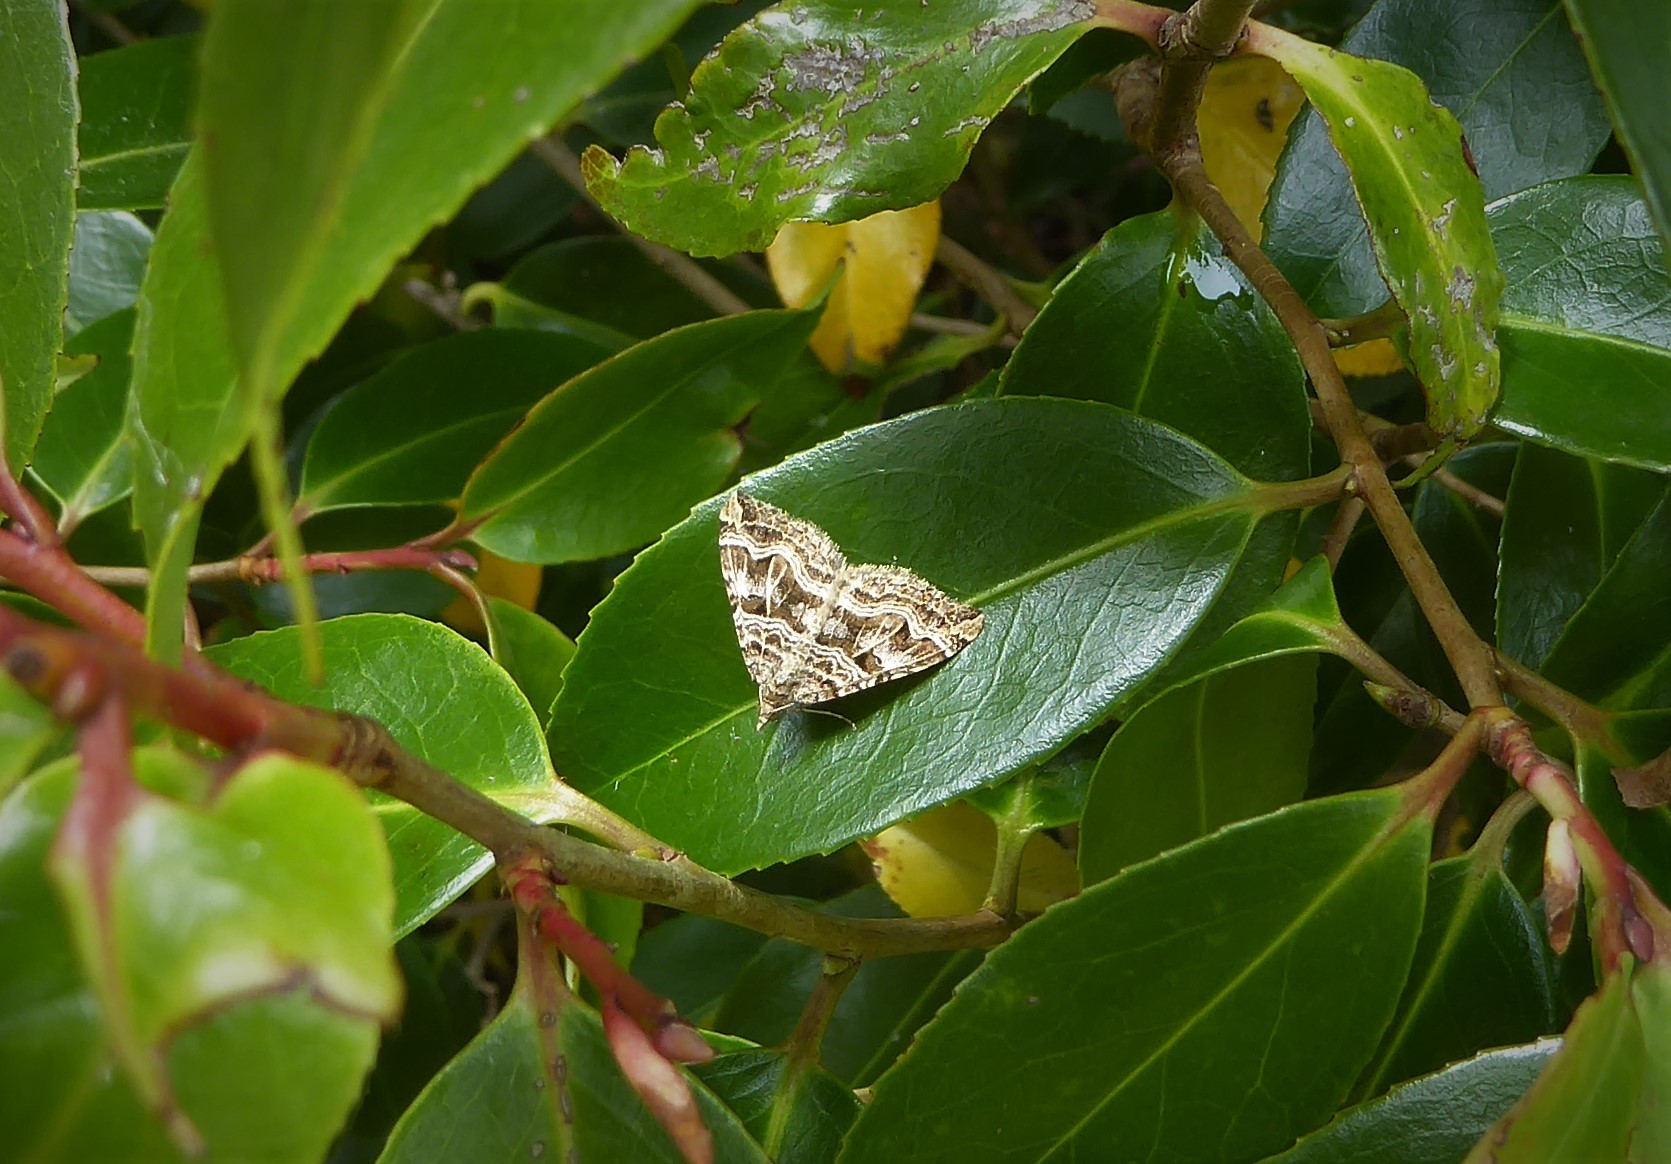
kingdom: Animalia
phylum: Arthropoda
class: Insecta
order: Lepidoptera
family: Geometridae
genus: Xanthorhoe
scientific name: Xanthorhoe semifissata
